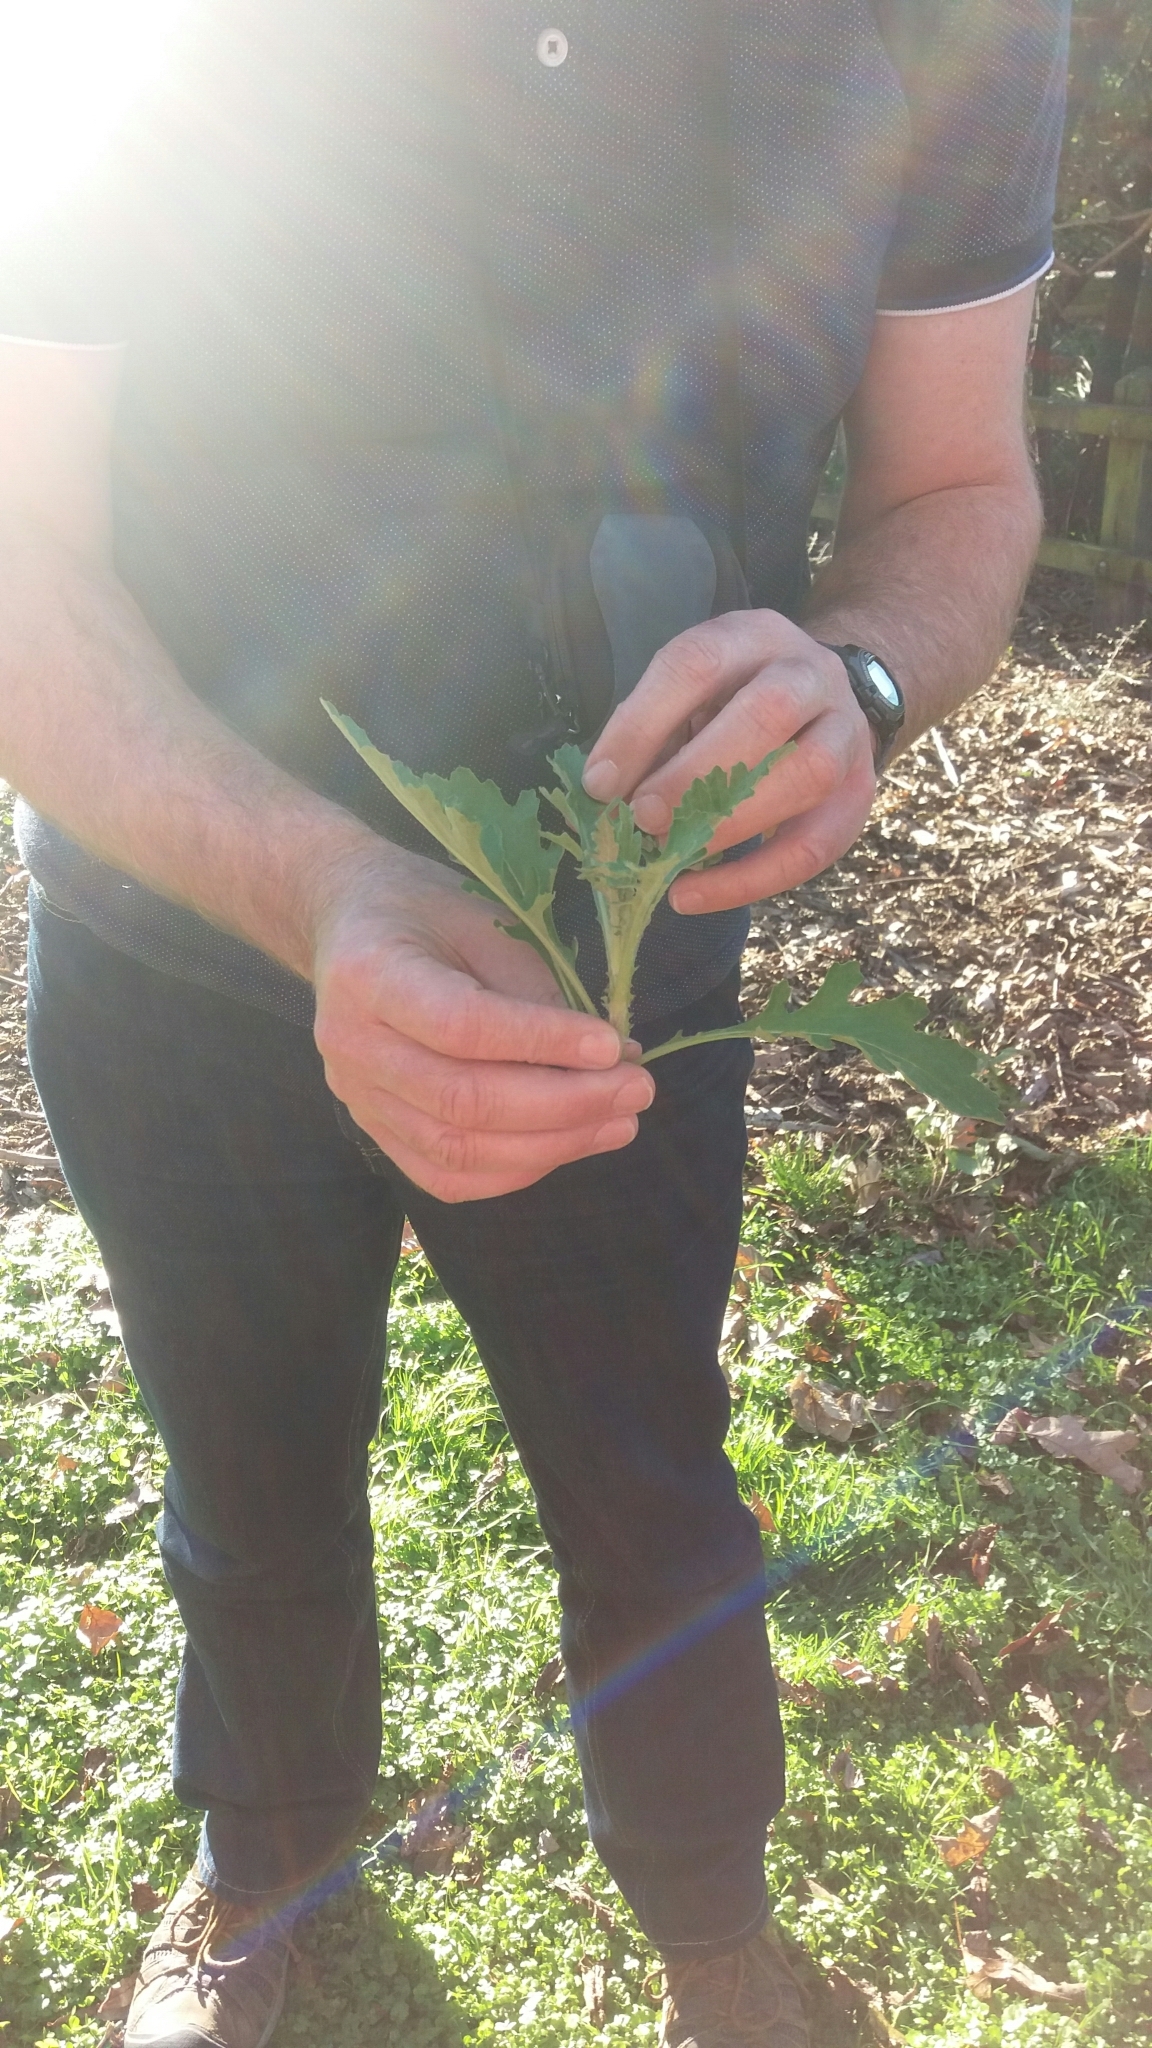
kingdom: Plantae
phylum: Tracheophyta
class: Magnoliopsida
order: Asterales
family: Asteraceae
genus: Senecio
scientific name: Senecio glomeratus
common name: Cutleaf burnweed
